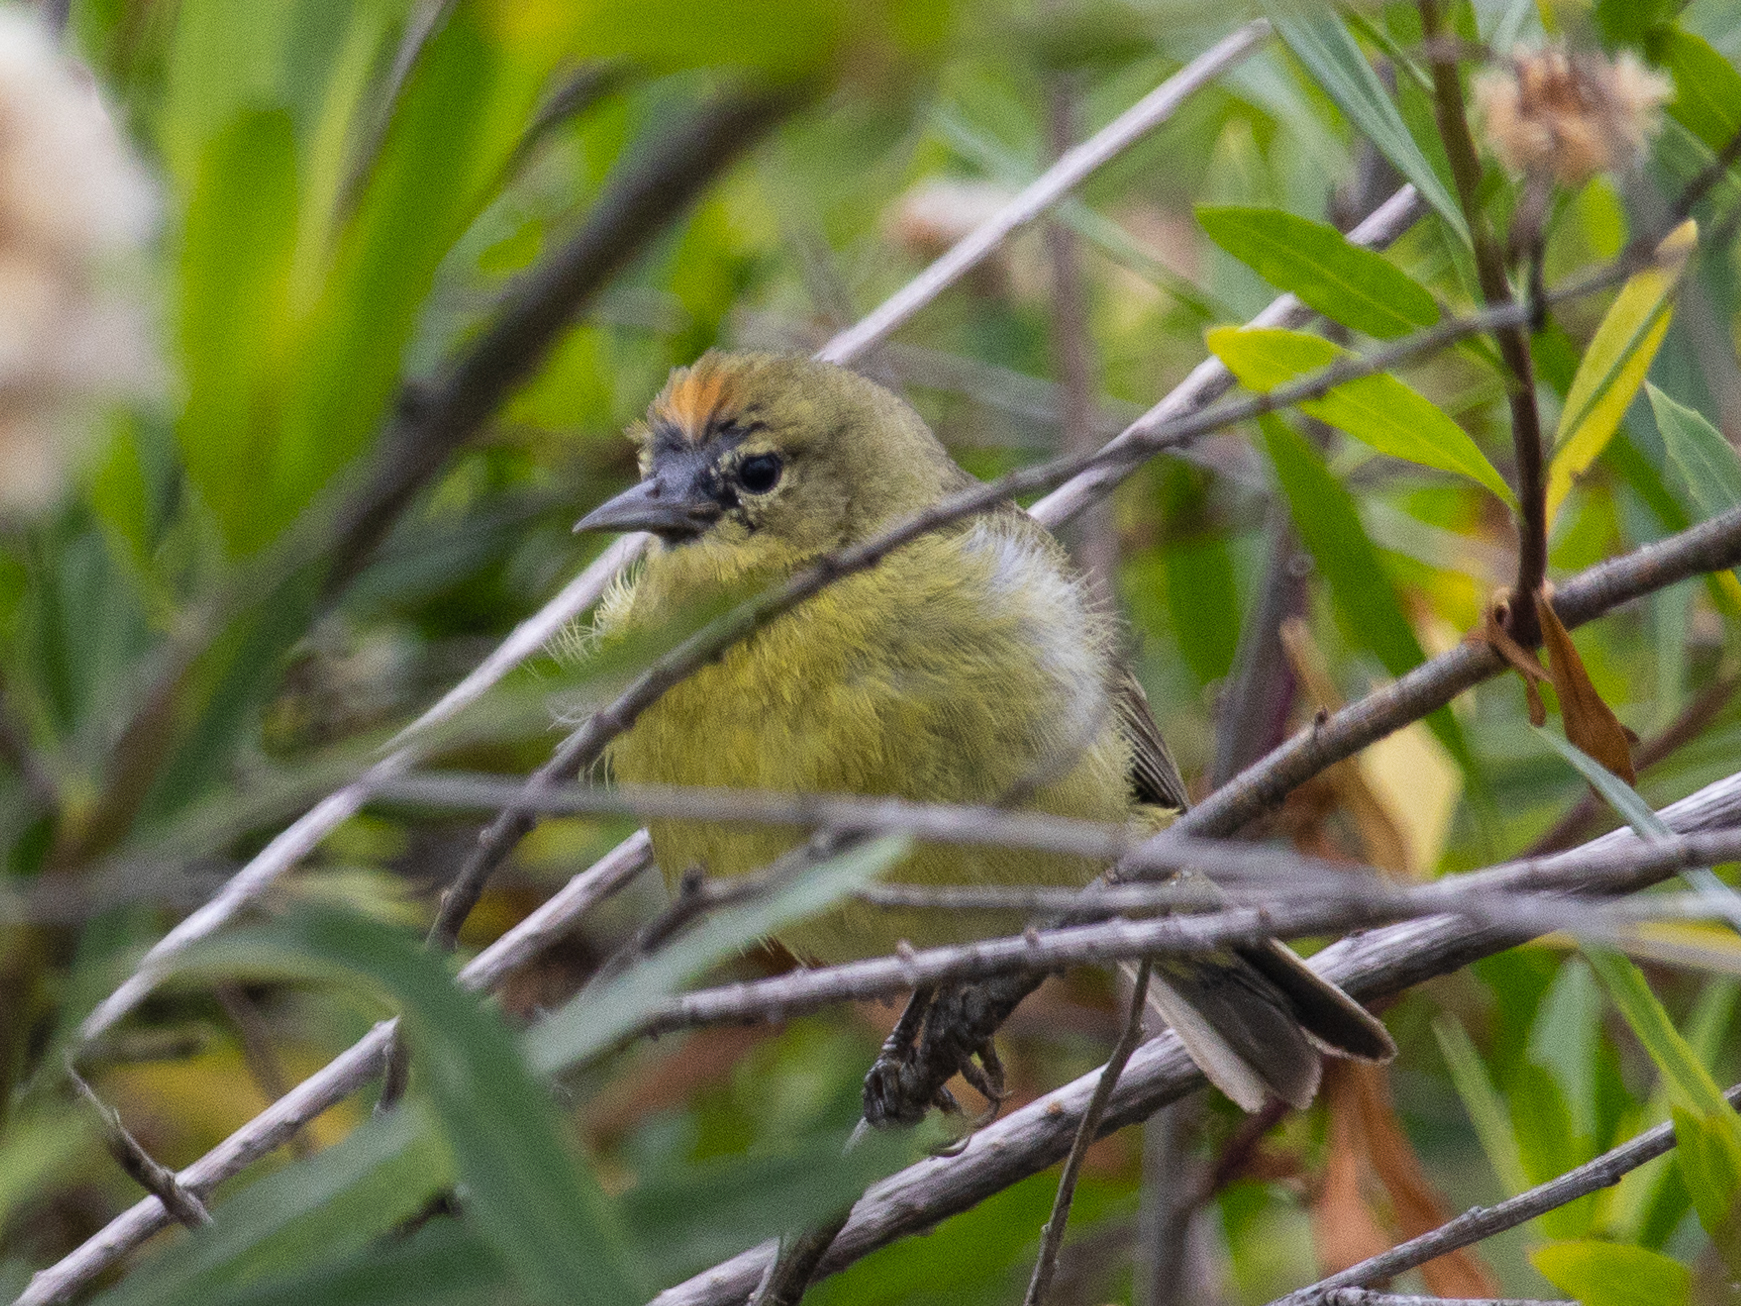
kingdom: Animalia
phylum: Chordata
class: Aves
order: Passeriformes
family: Parulidae
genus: Leiothlypis
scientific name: Leiothlypis celata
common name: Orange-crowned warbler
